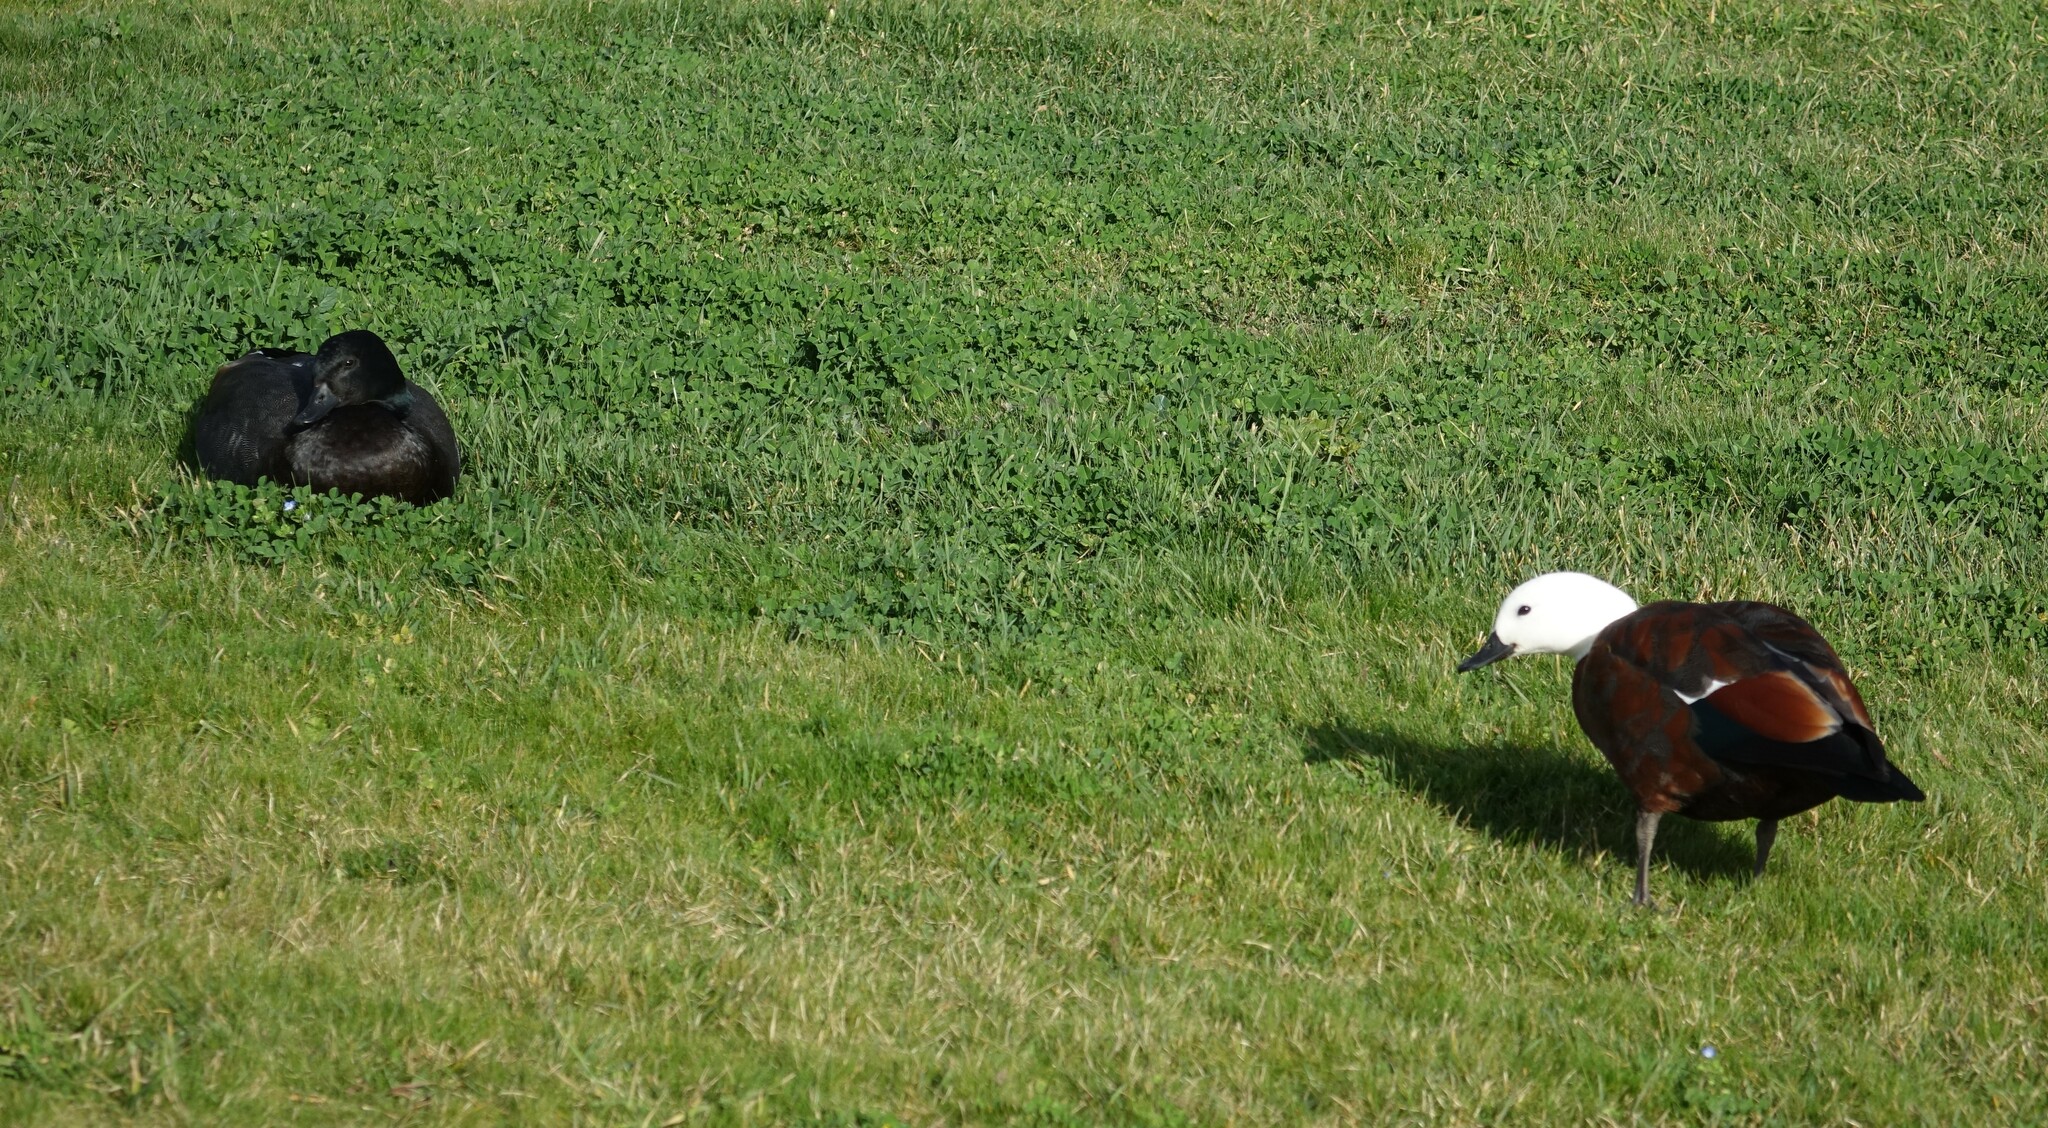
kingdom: Animalia
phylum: Chordata
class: Aves
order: Anseriformes
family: Anatidae
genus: Tadorna
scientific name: Tadorna variegata
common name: Paradise shelduck
